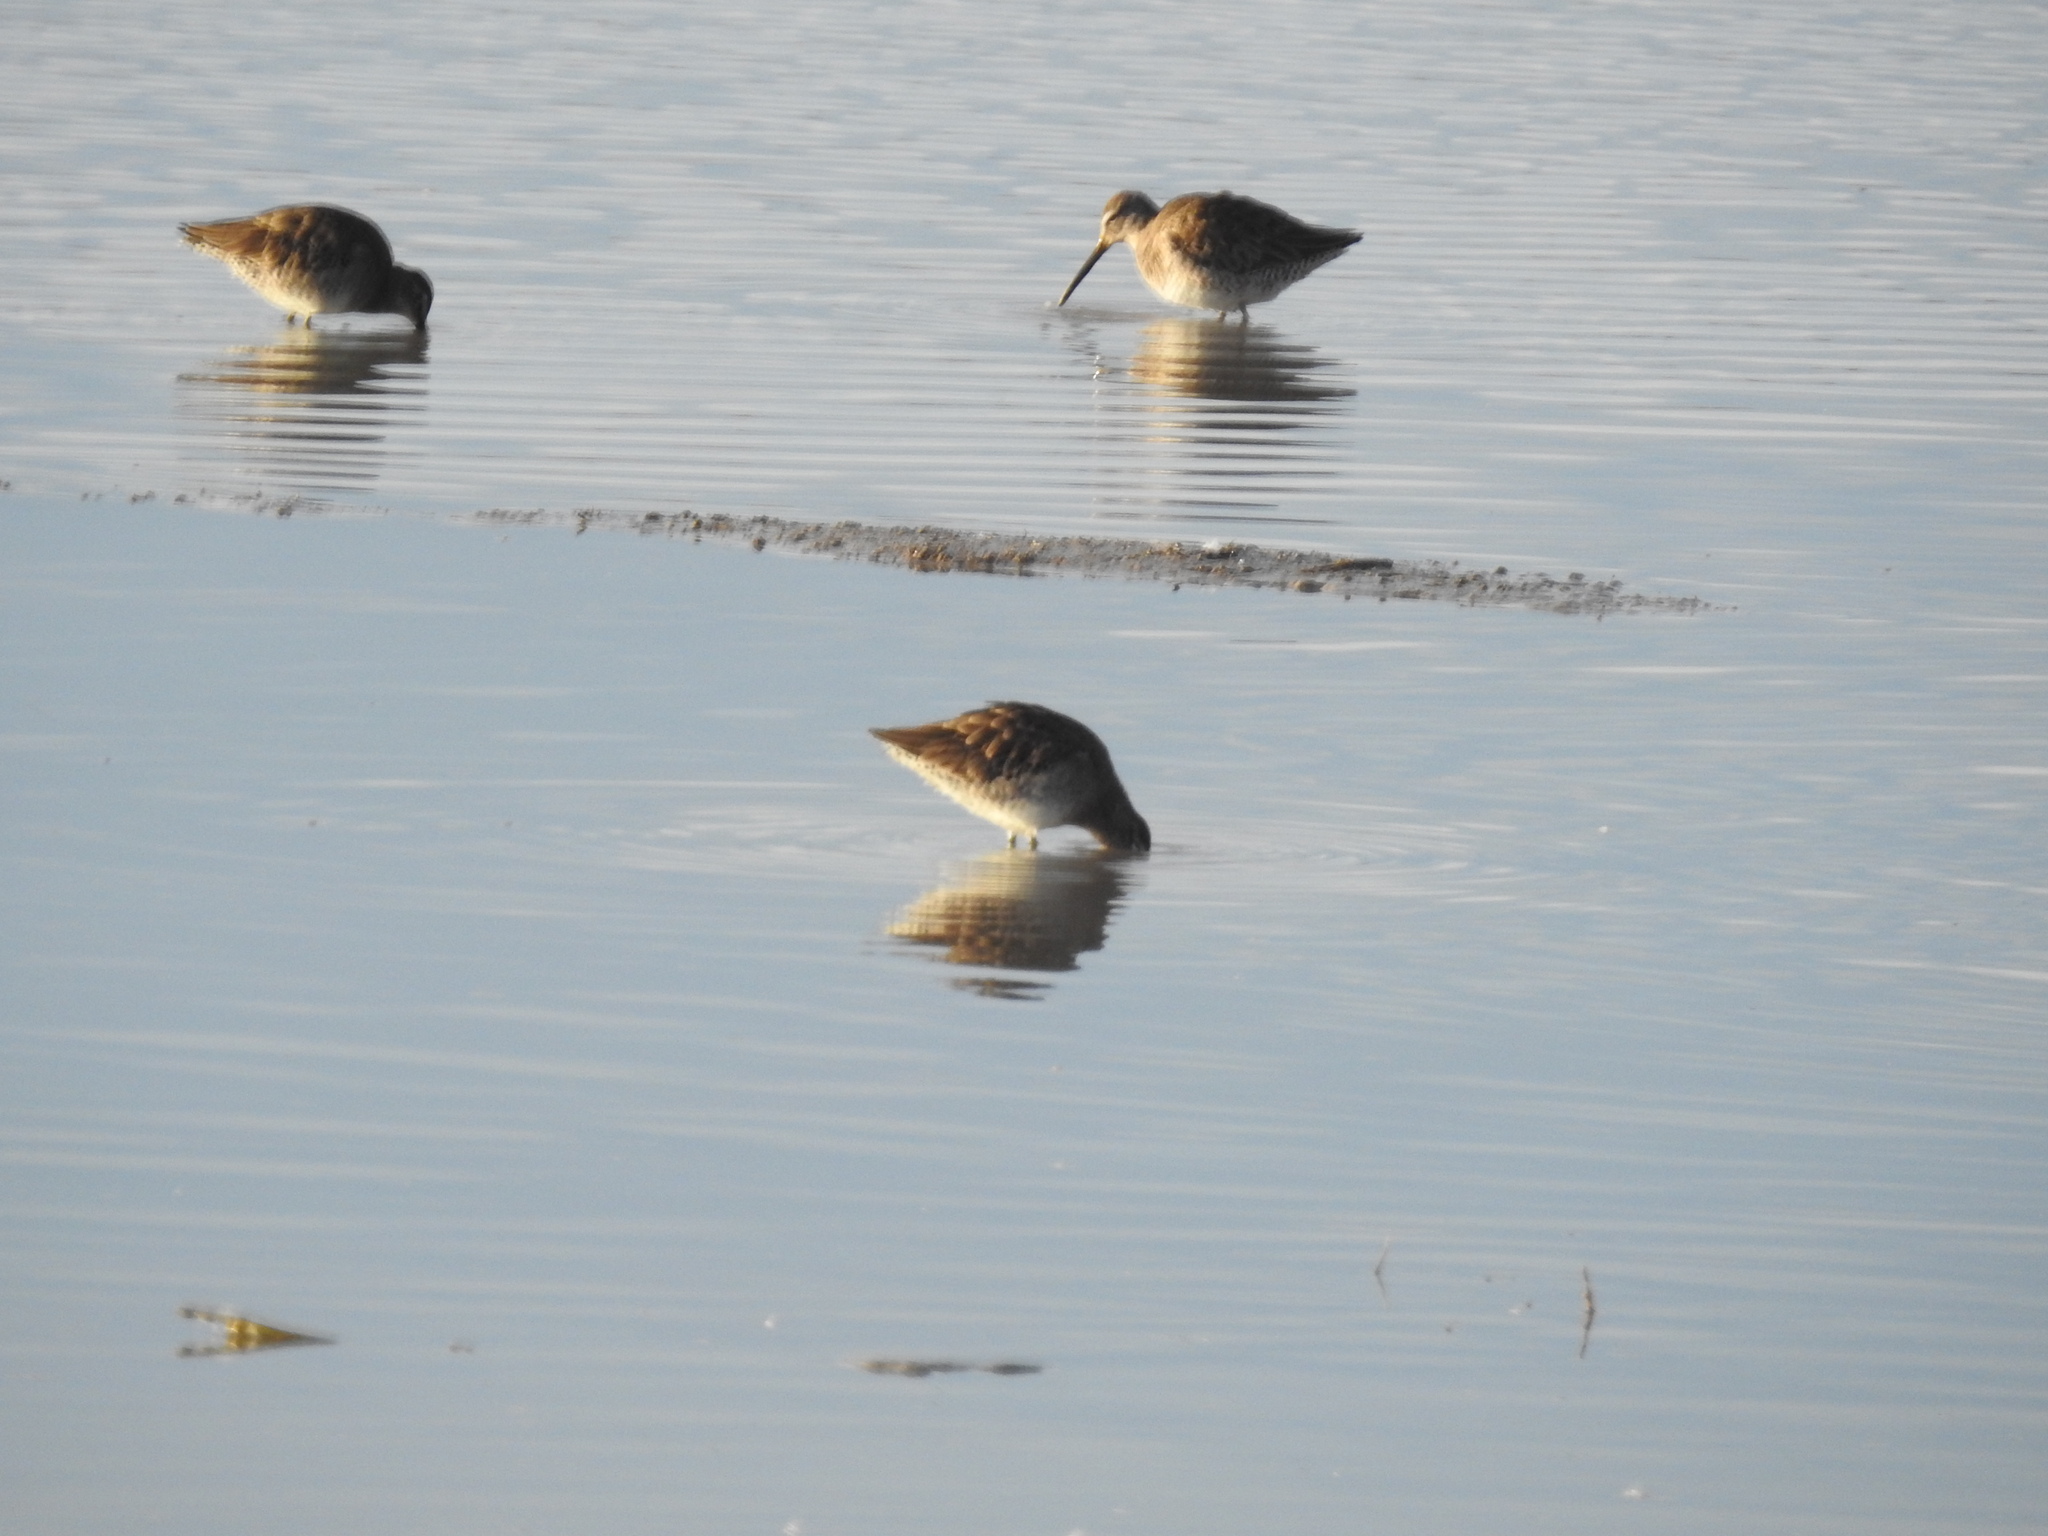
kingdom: Animalia
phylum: Chordata
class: Aves
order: Charadriiformes
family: Scolopacidae
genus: Limnodromus
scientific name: Limnodromus scolopaceus
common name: Long-billed dowitcher
